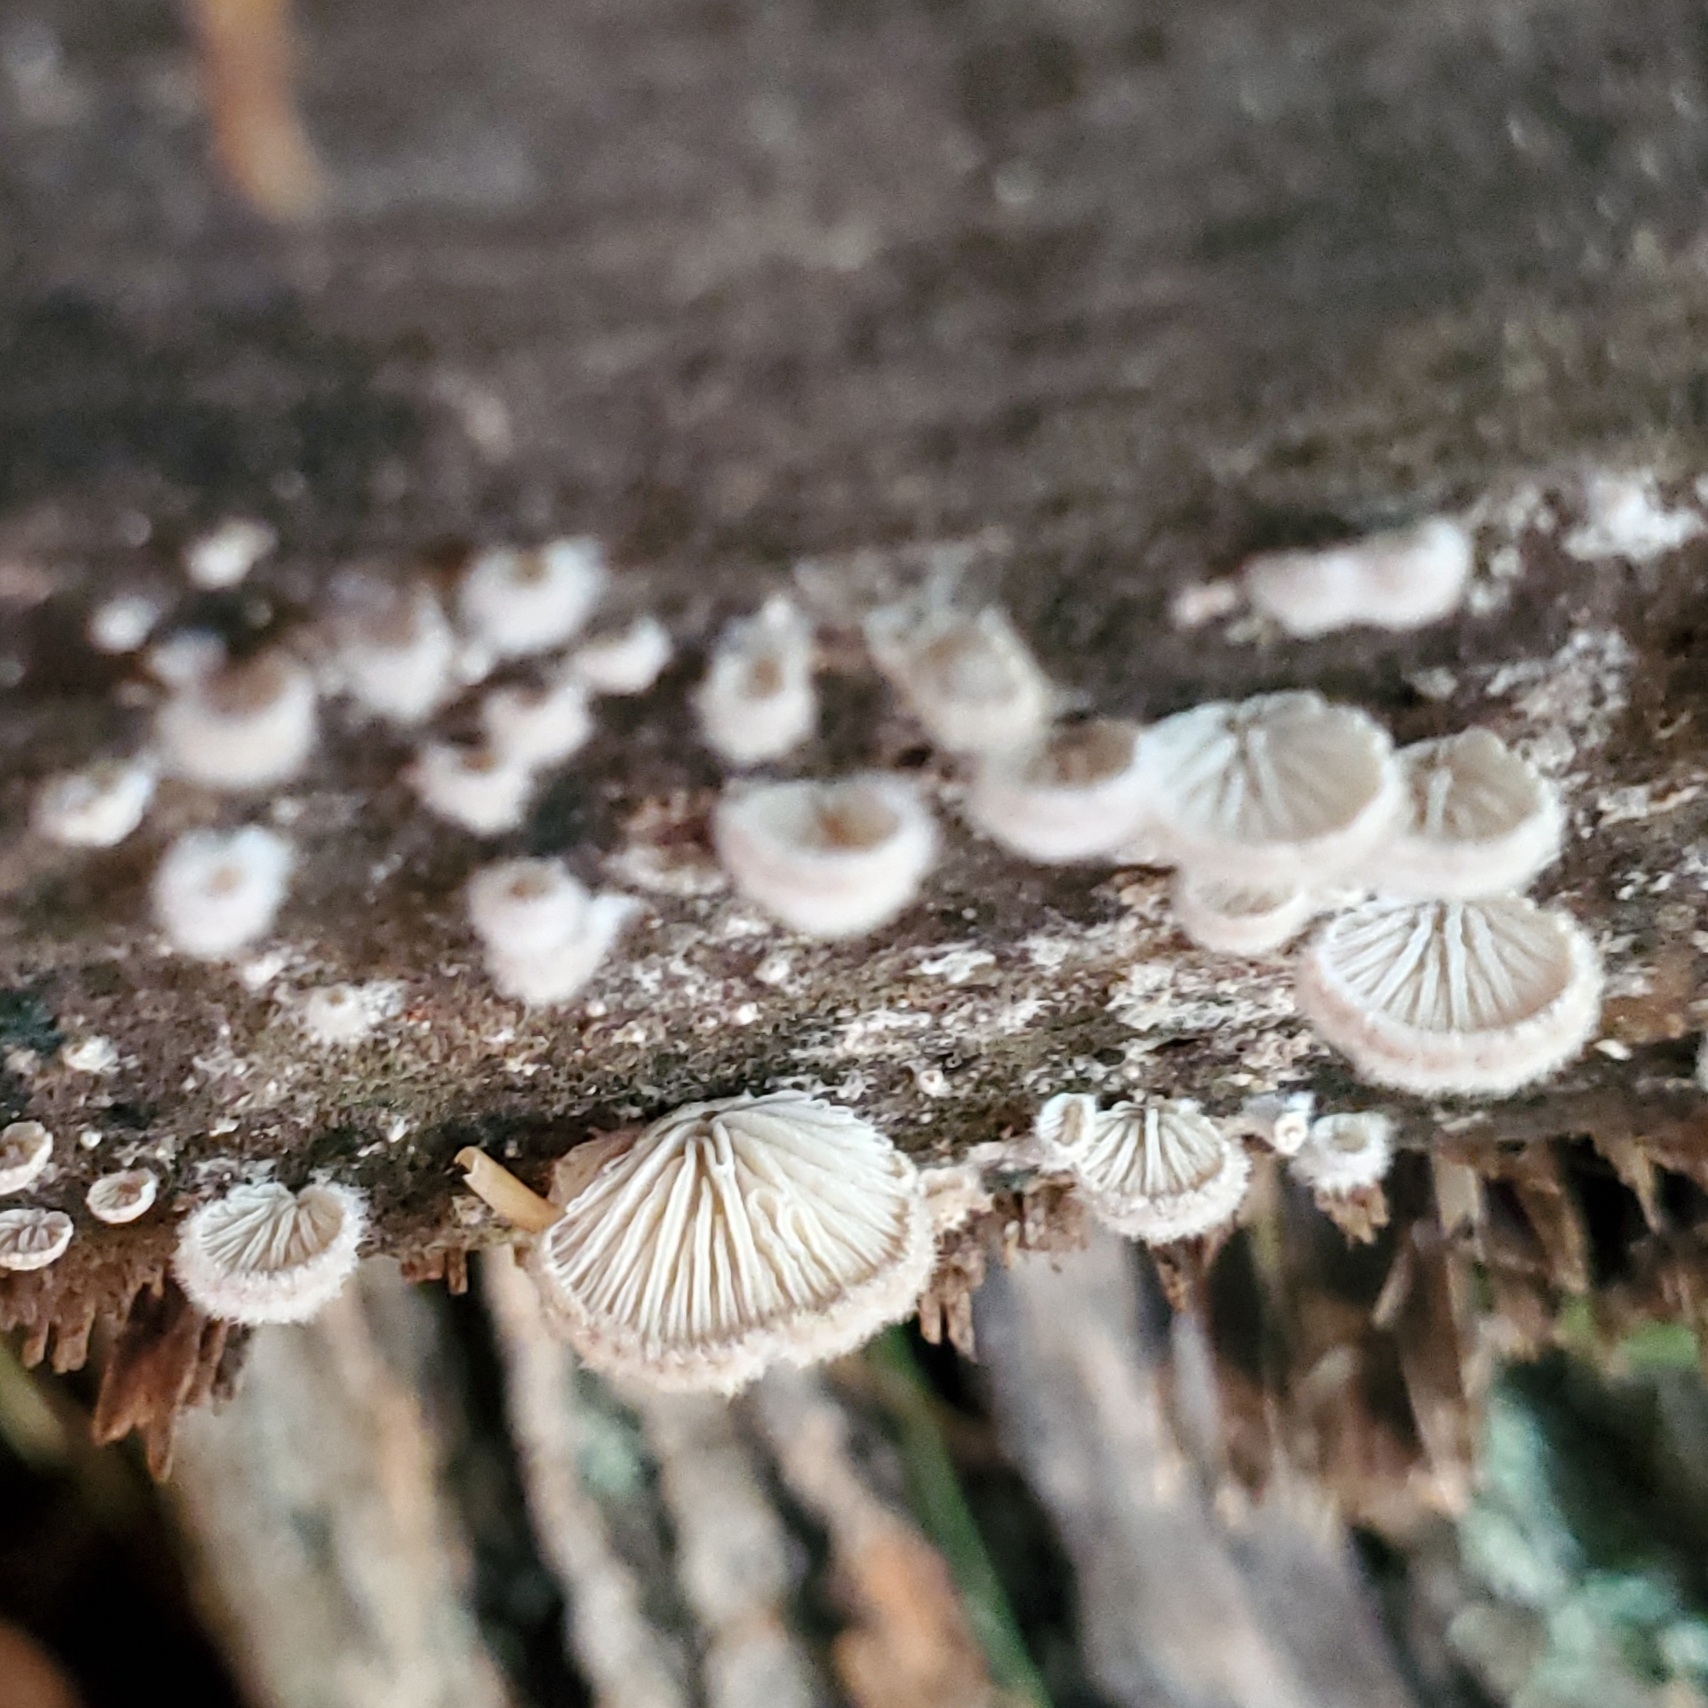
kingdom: Fungi
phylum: Basidiomycota
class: Agaricomycetes
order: Agaricales
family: Schizophyllaceae
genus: Schizophyllum
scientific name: Schizophyllum commune
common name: Common porecrust
